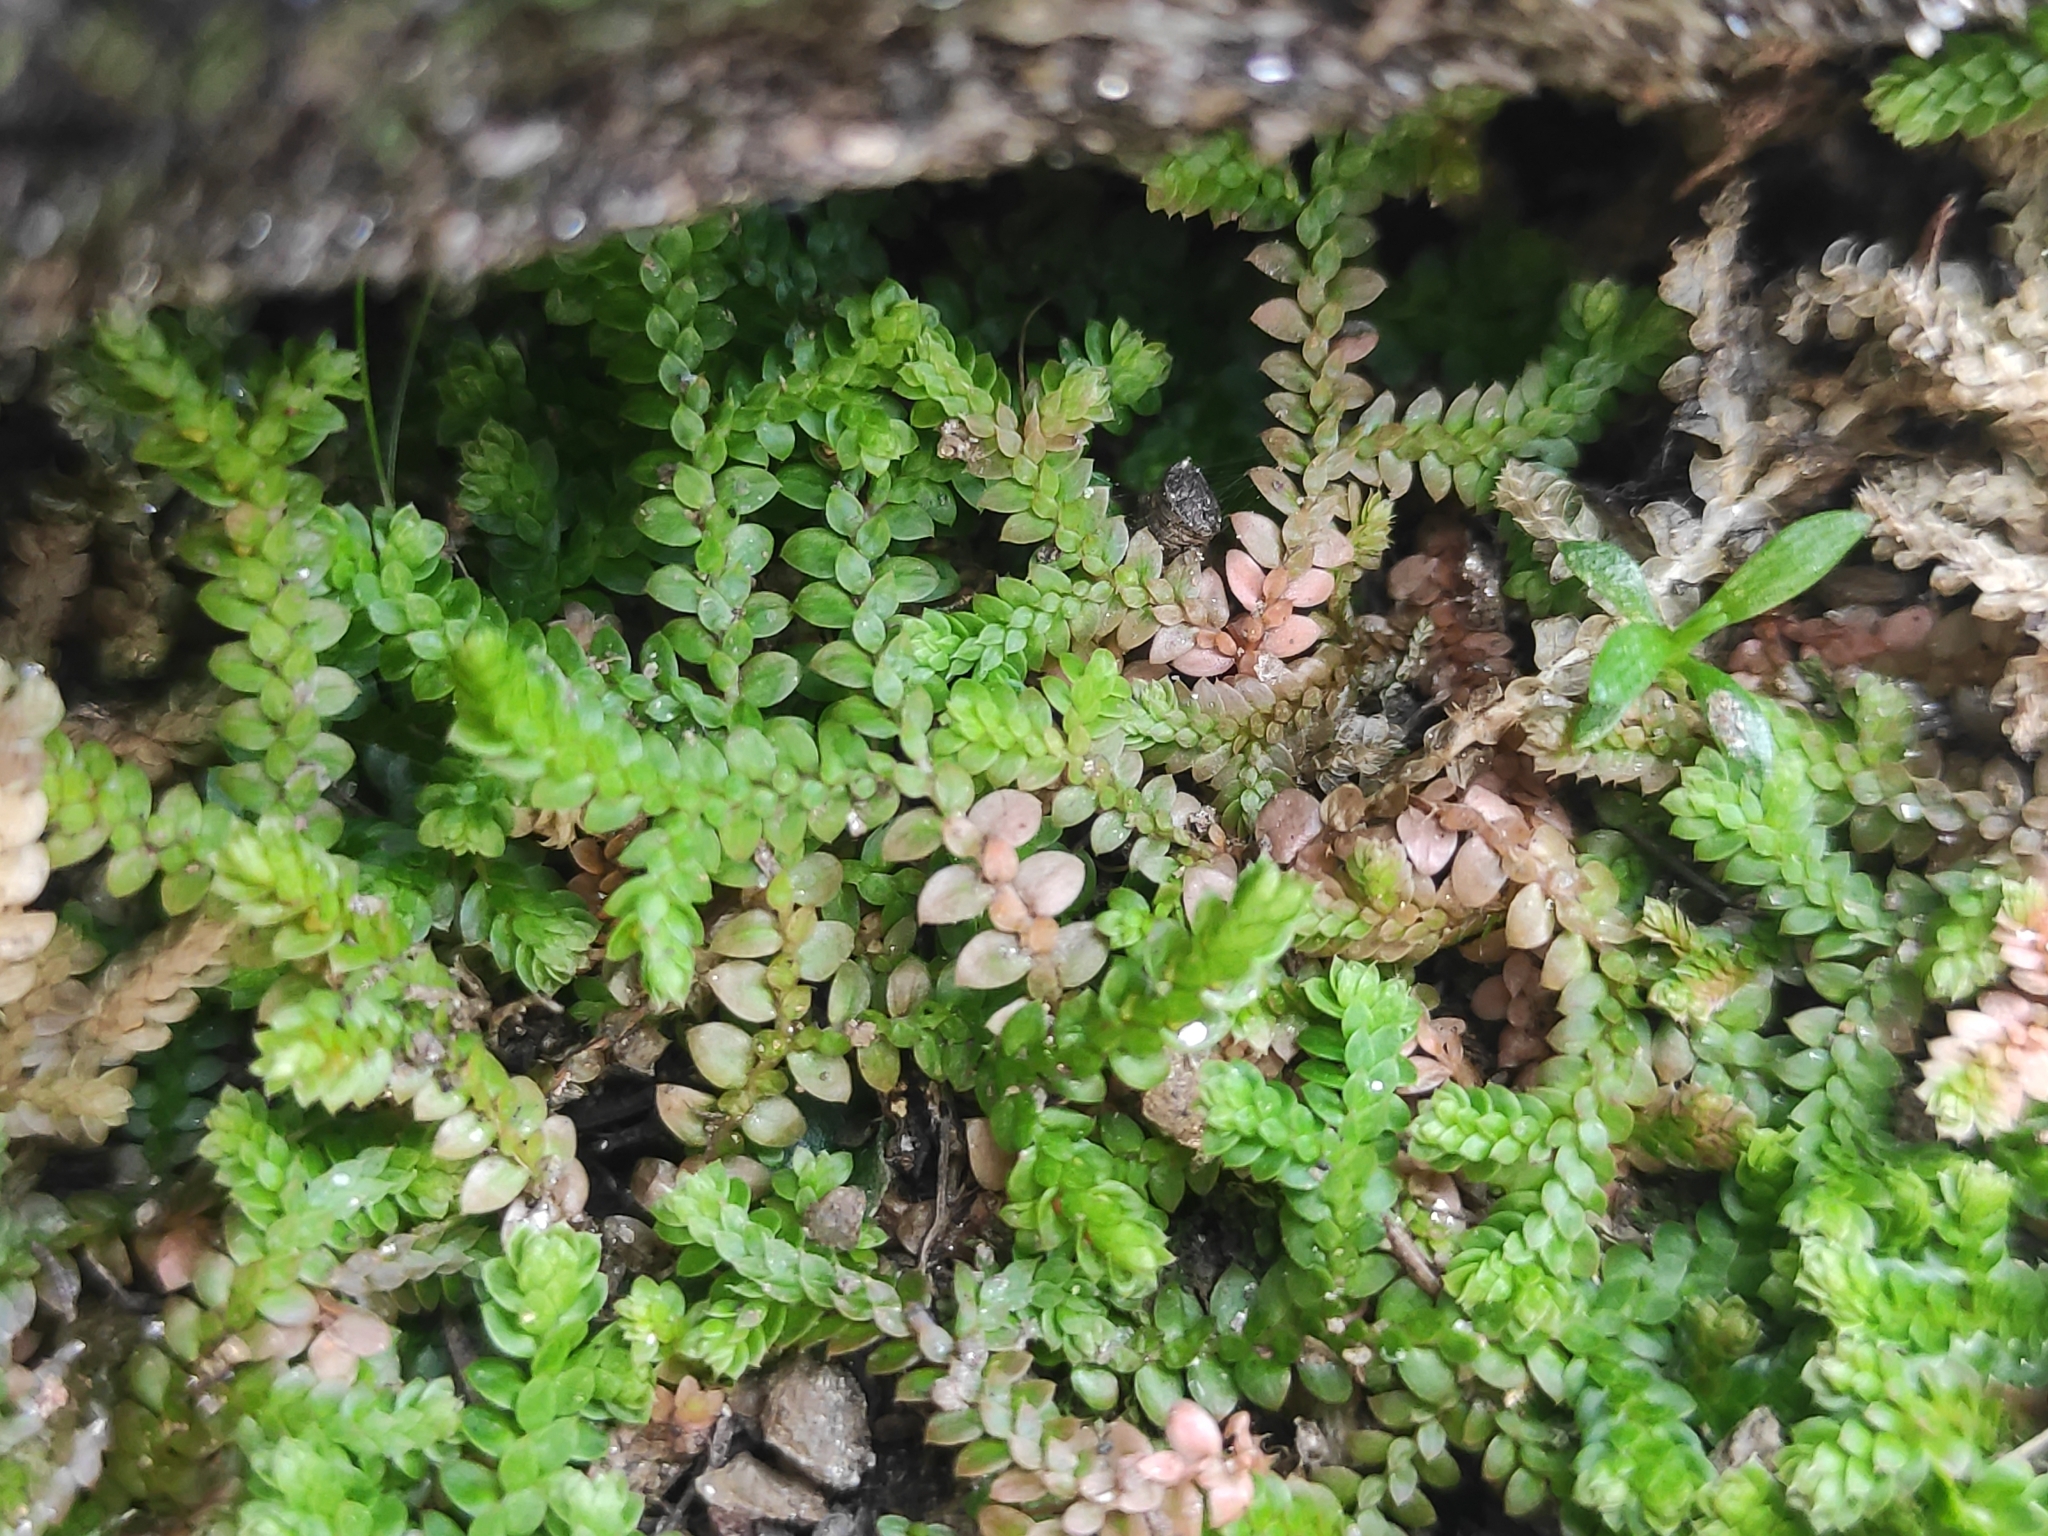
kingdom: Plantae
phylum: Tracheophyta
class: Lycopodiopsida
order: Selaginellales
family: Selaginellaceae
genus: Selaginella
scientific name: Selaginella denticulata
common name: Toothed-leaved clubmoss
